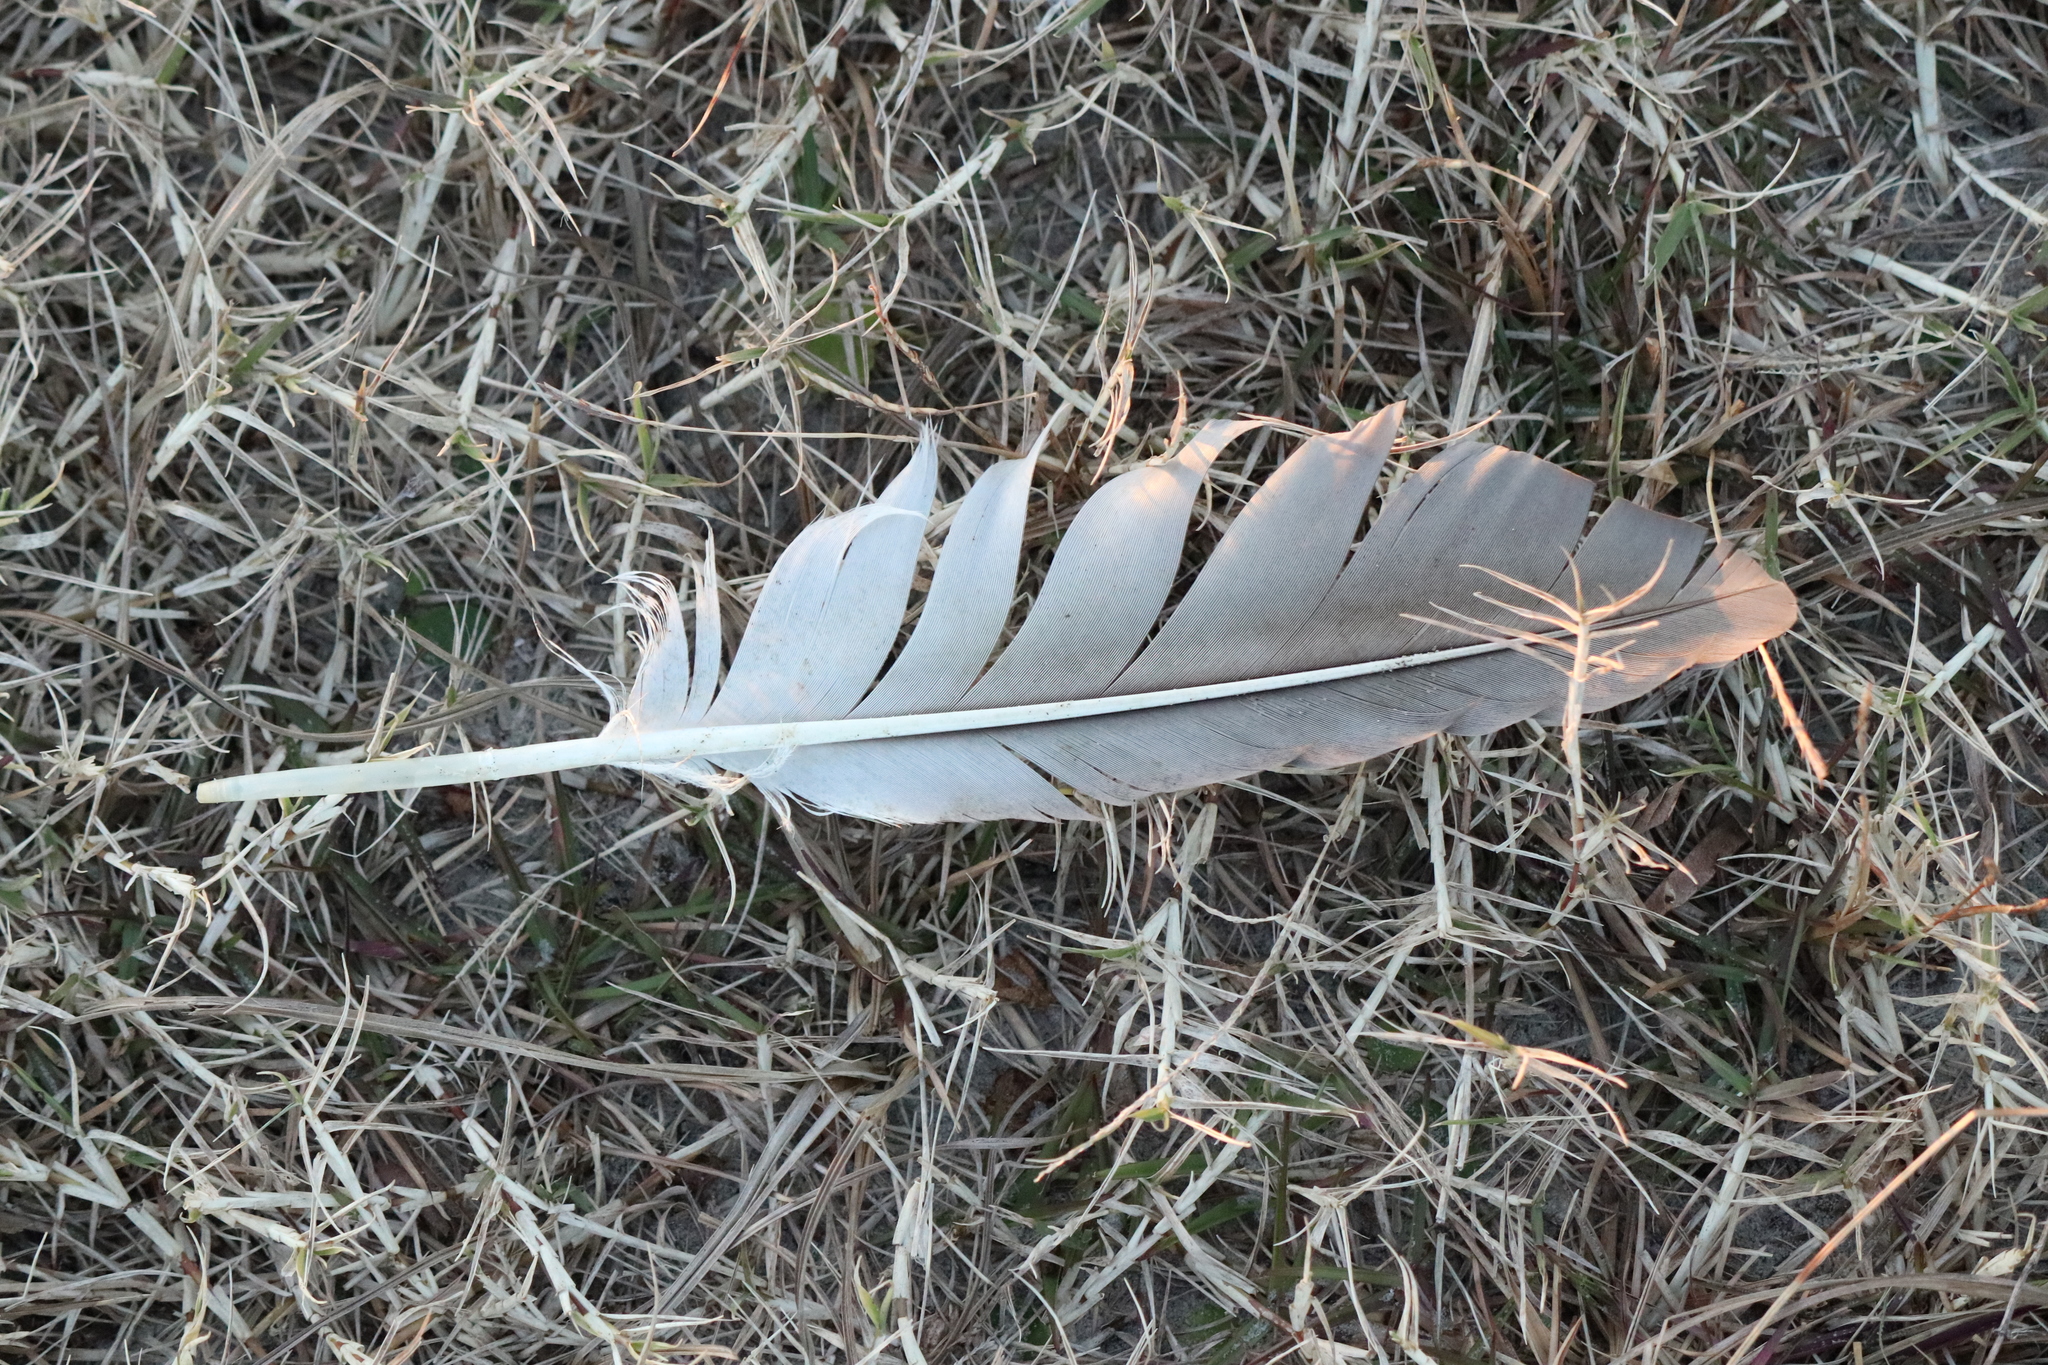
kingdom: Animalia
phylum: Chordata
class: Aves
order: Suliformes
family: Sulidae
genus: Morus
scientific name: Morus bassanus
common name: Northern gannet
